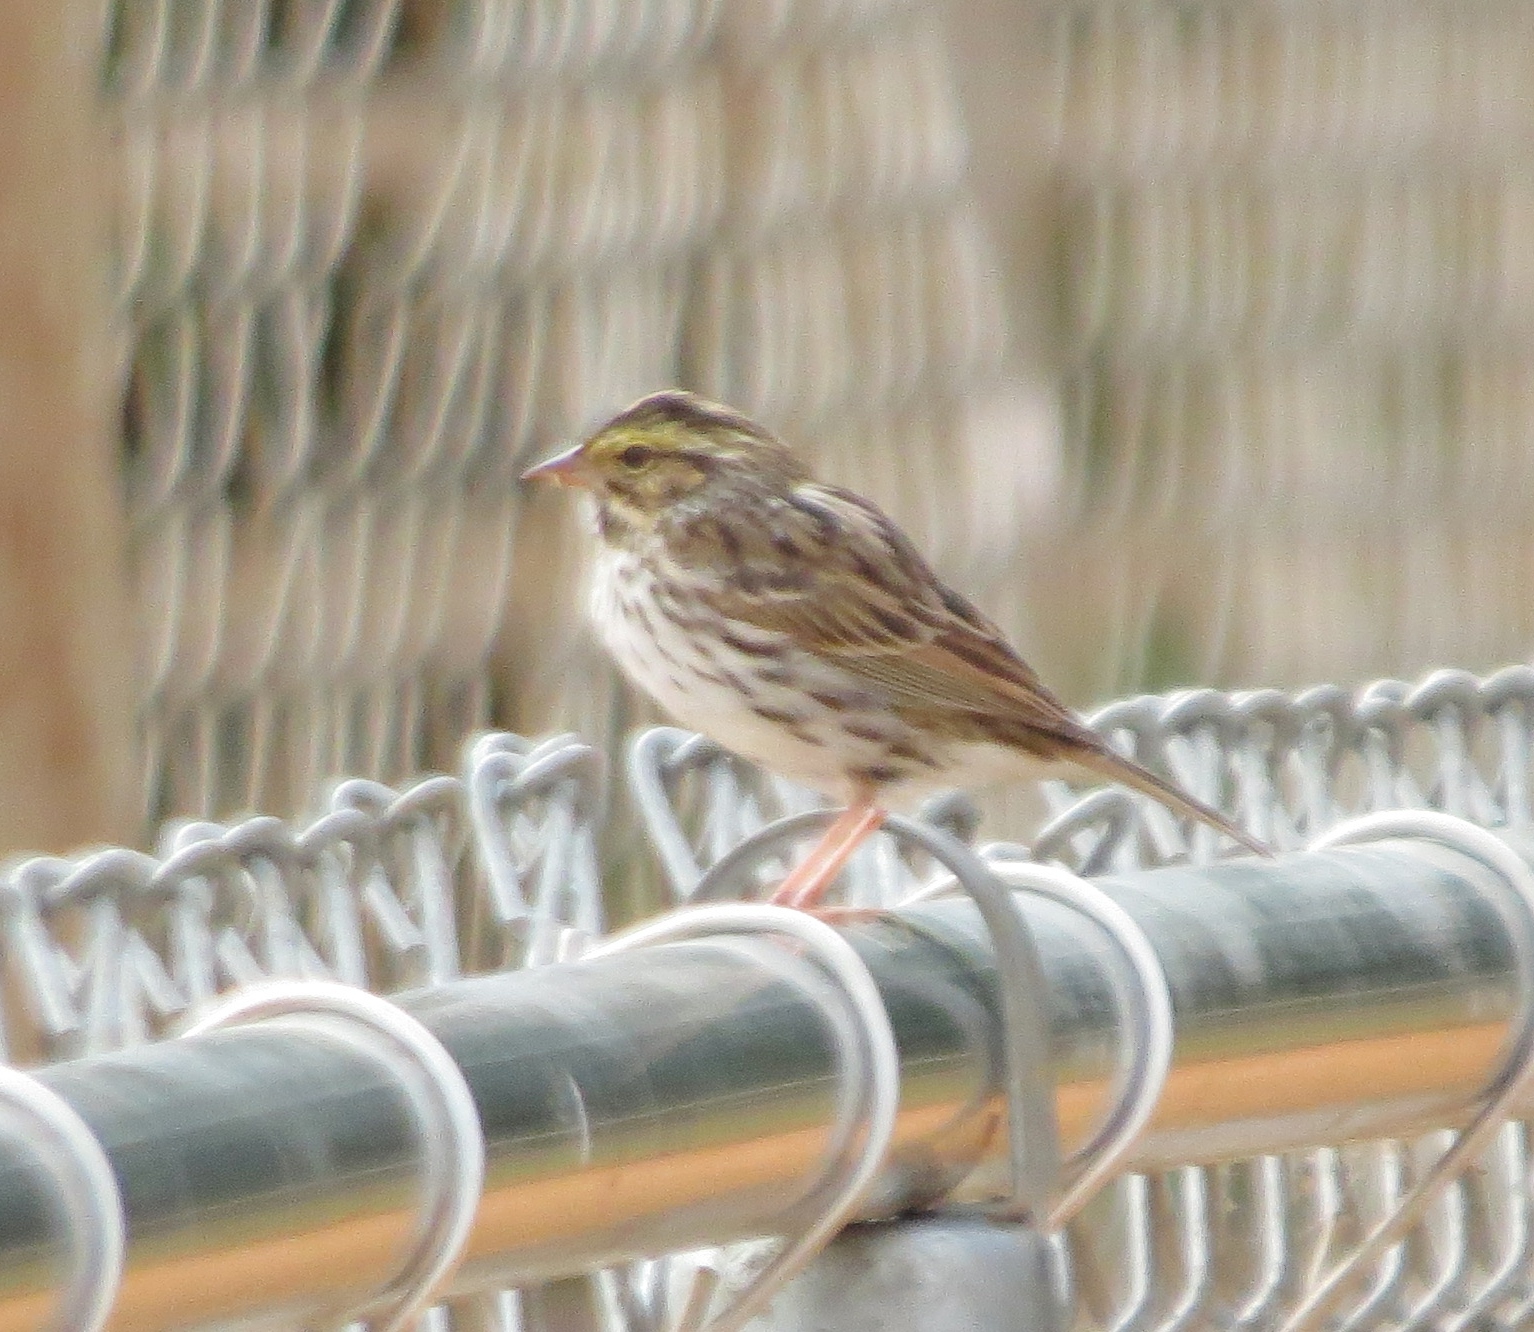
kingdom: Animalia
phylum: Chordata
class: Aves
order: Passeriformes
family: Passerellidae
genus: Passerculus
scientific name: Passerculus sandwichensis
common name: Savannah sparrow
